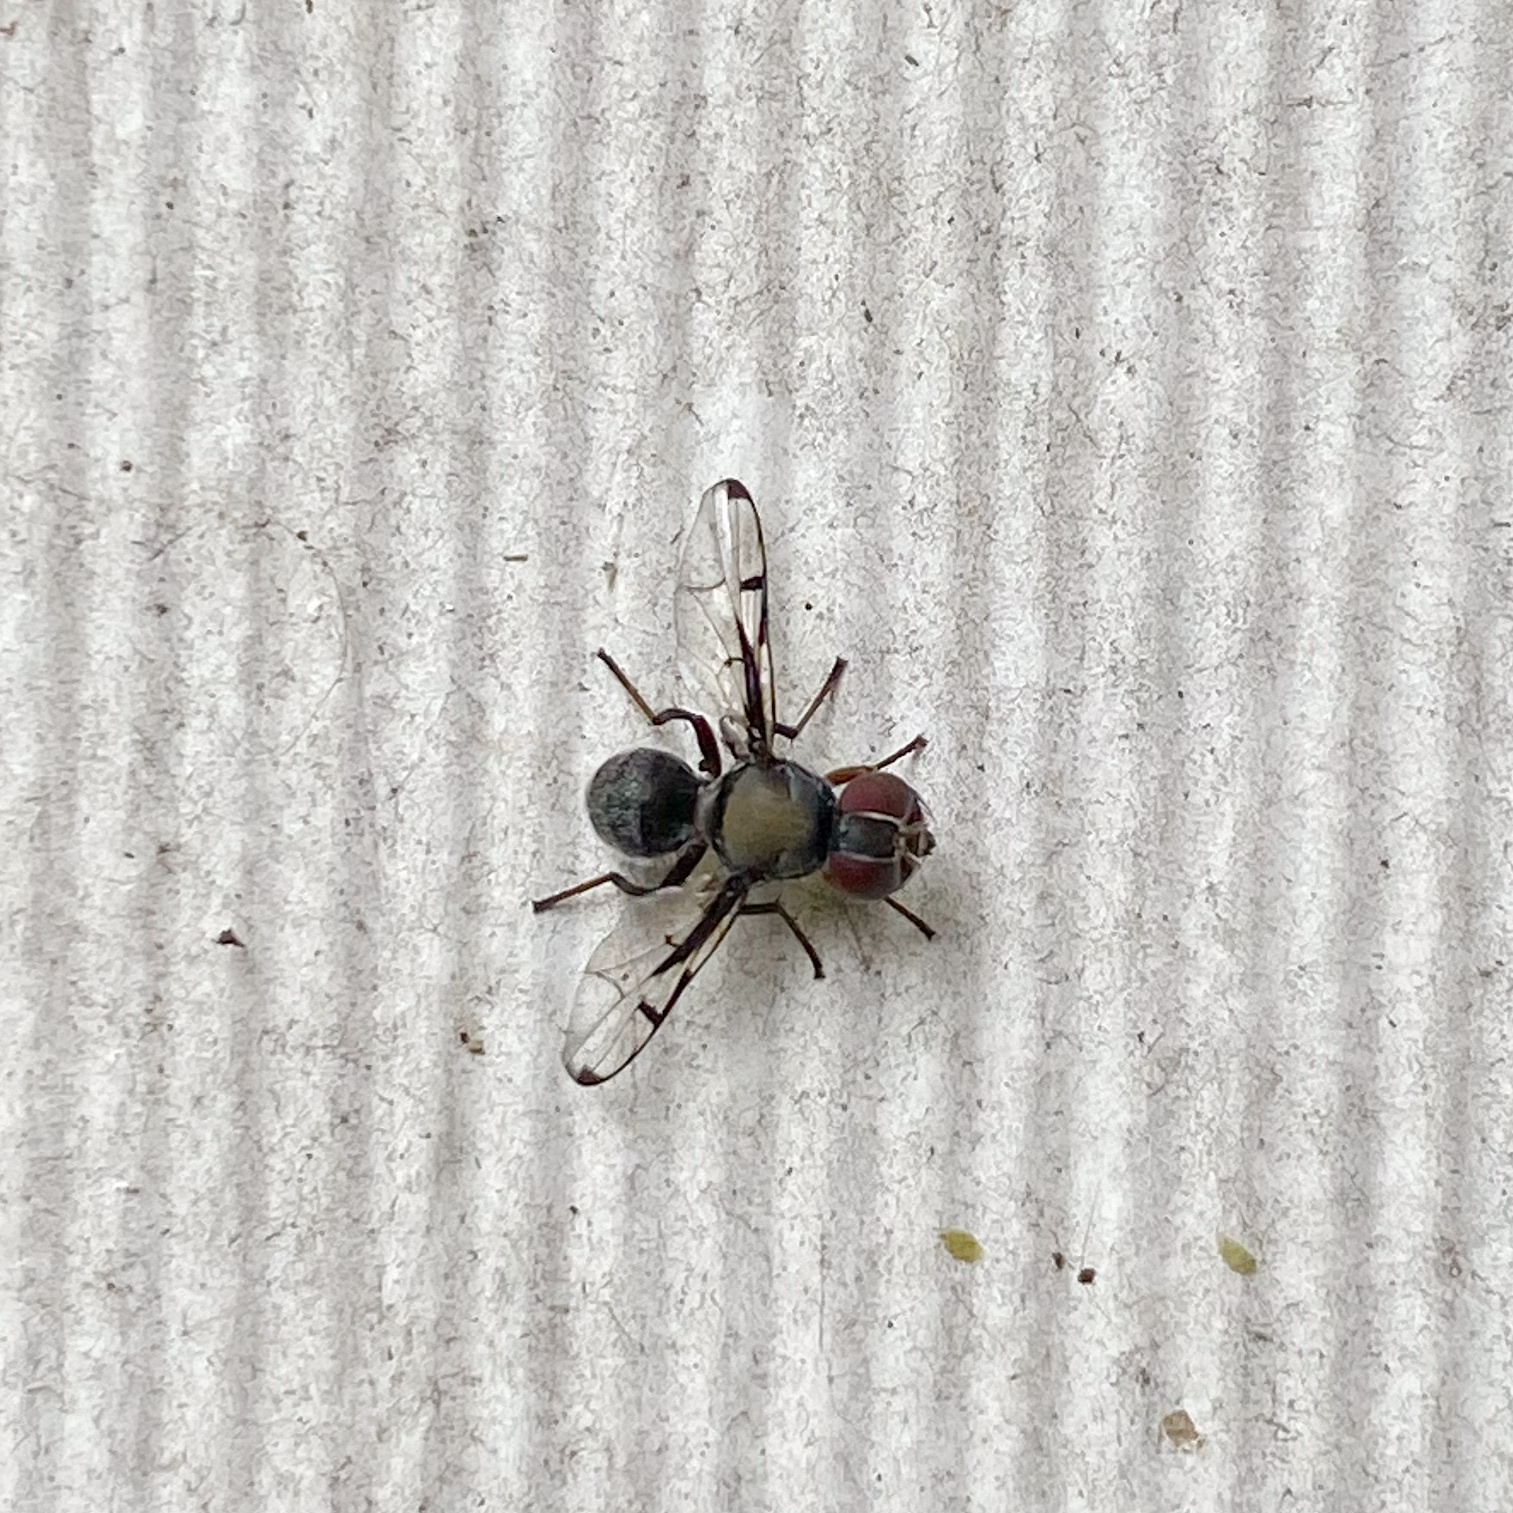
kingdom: Animalia
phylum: Arthropoda
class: Insecta
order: Diptera
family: Platystomatidae
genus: Pogonortalis
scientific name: Pogonortalis doclea
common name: Boatman fly
